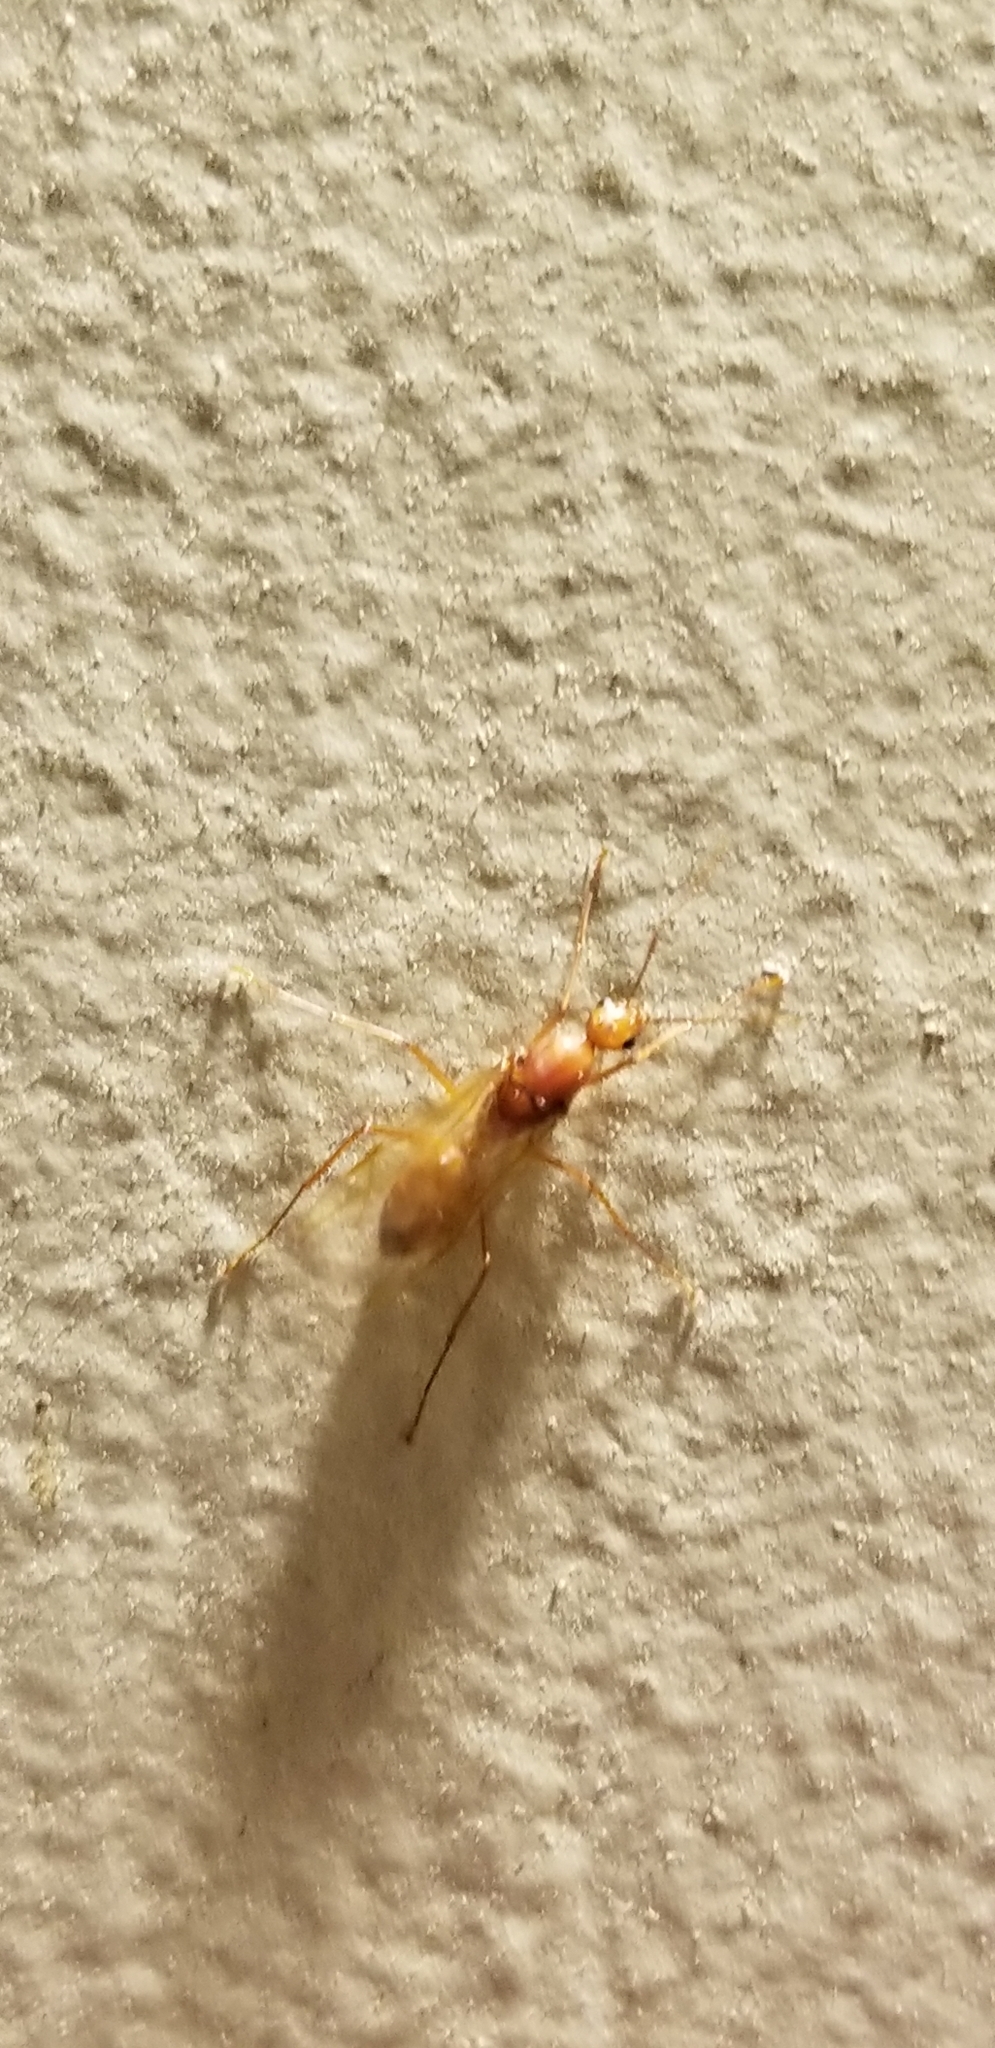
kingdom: Animalia
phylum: Arthropoda
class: Insecta
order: Hymenoptera
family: Formicidae
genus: Camponotus
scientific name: Camponotus castaneus
